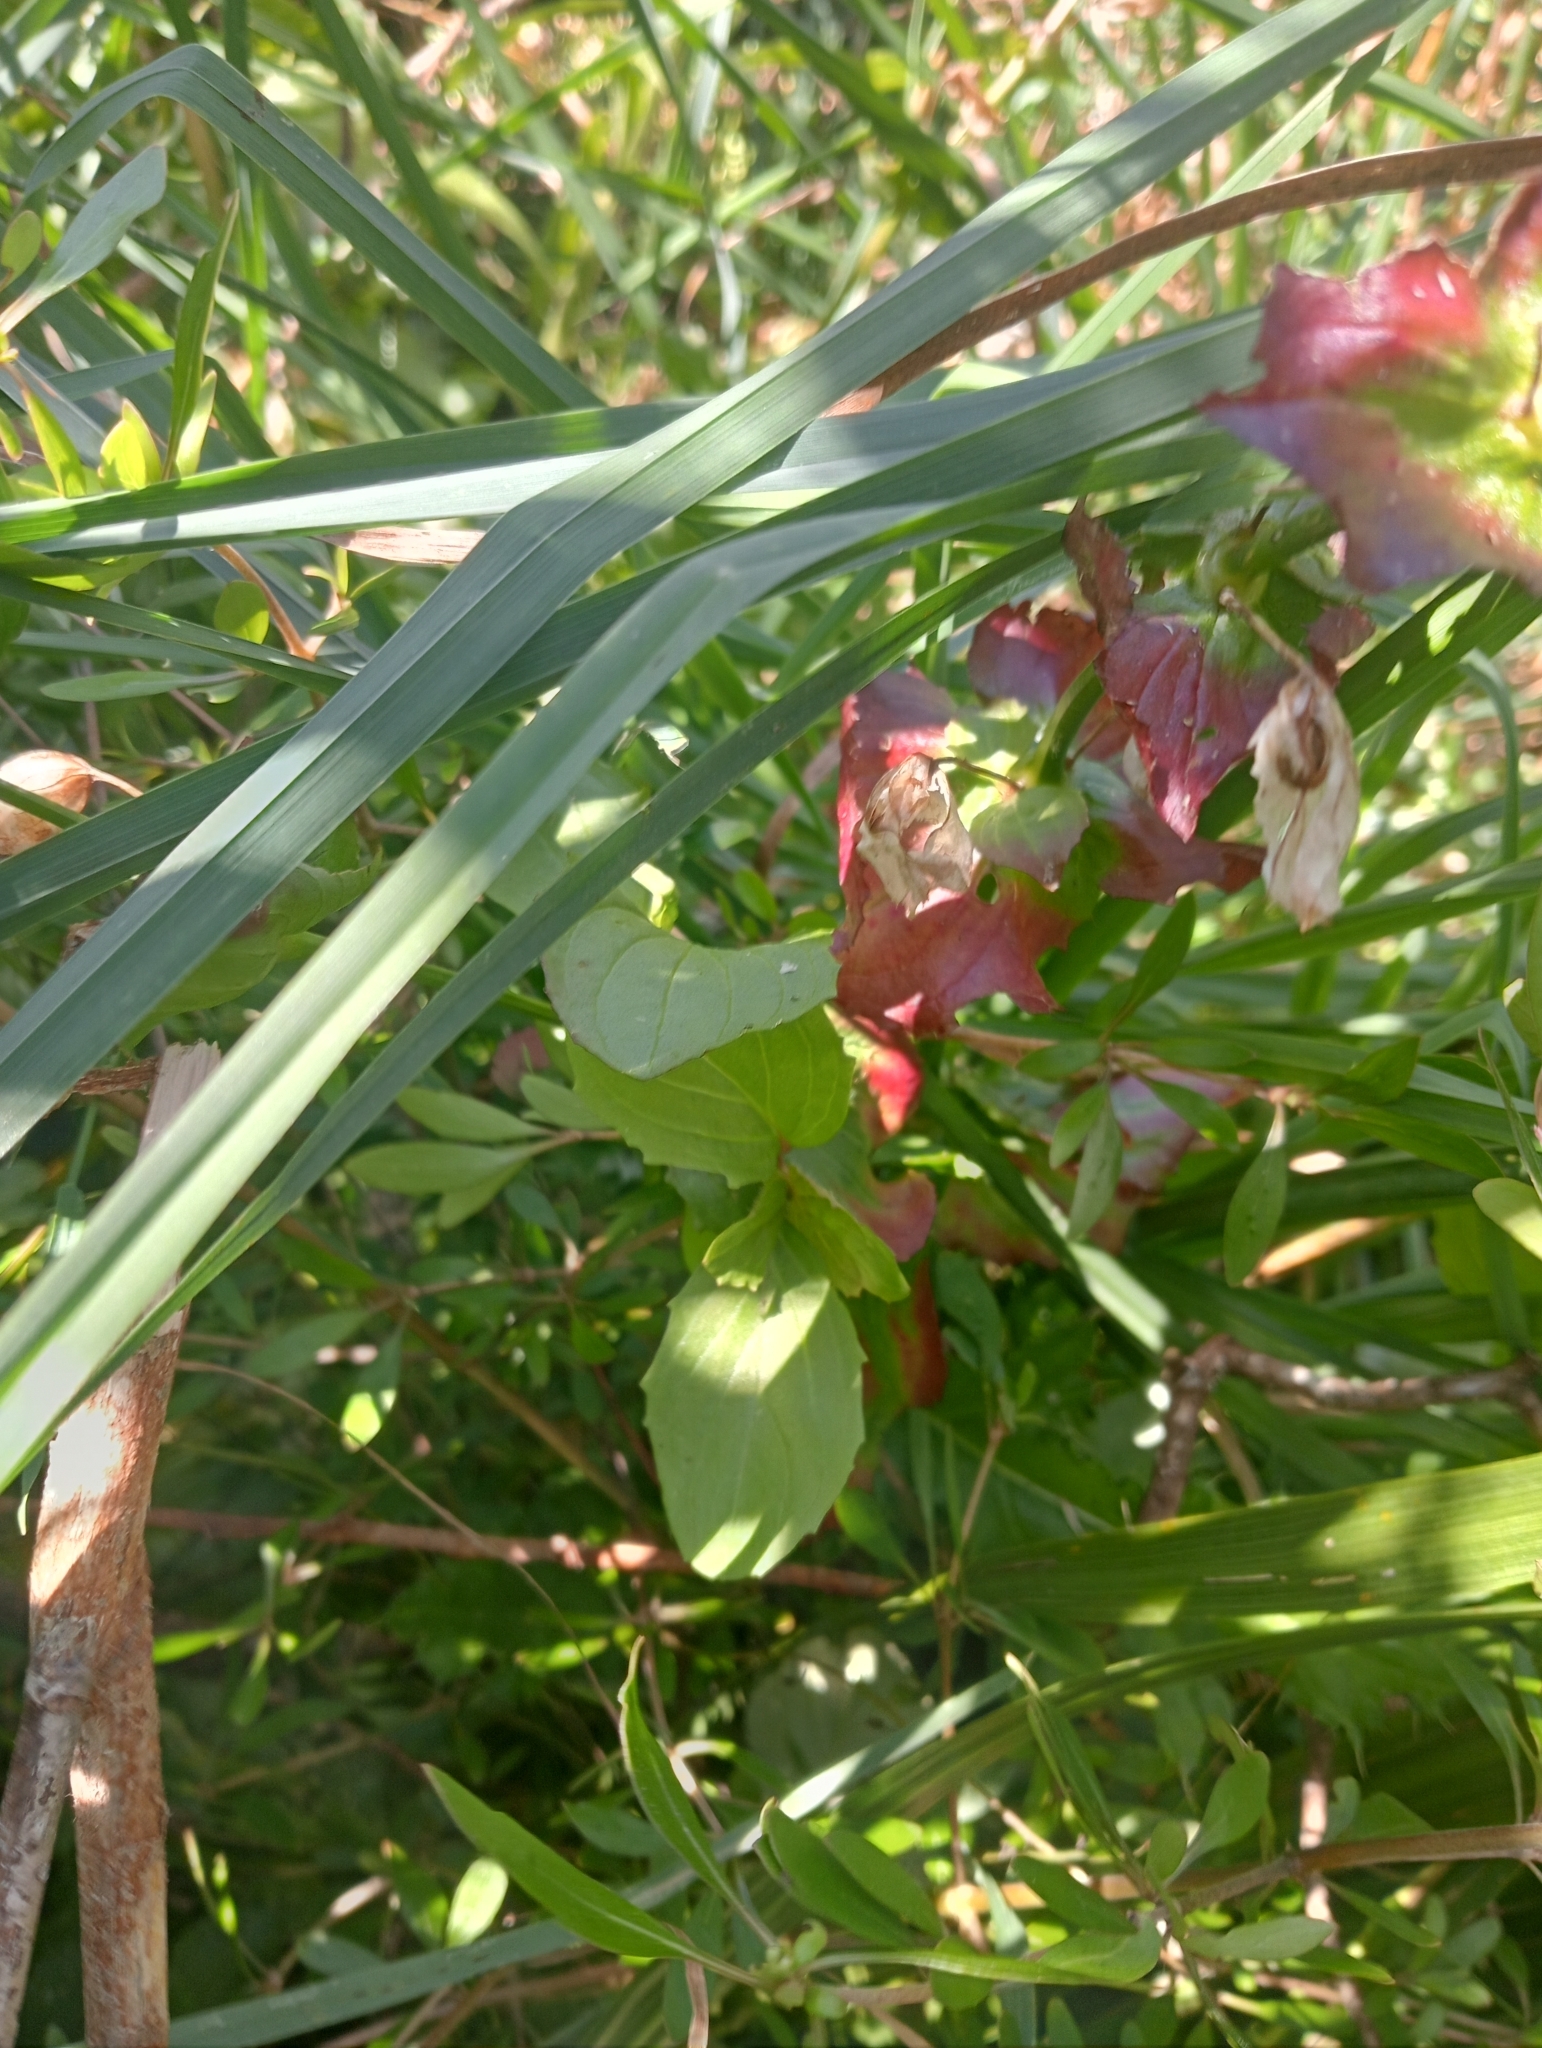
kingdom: Plantae
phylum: Tracheophyta
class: Magnoliopsida
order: Lamiales
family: Phrymaceae
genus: Erythranthe
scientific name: Erythranthe guttata
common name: Monkeyflower
